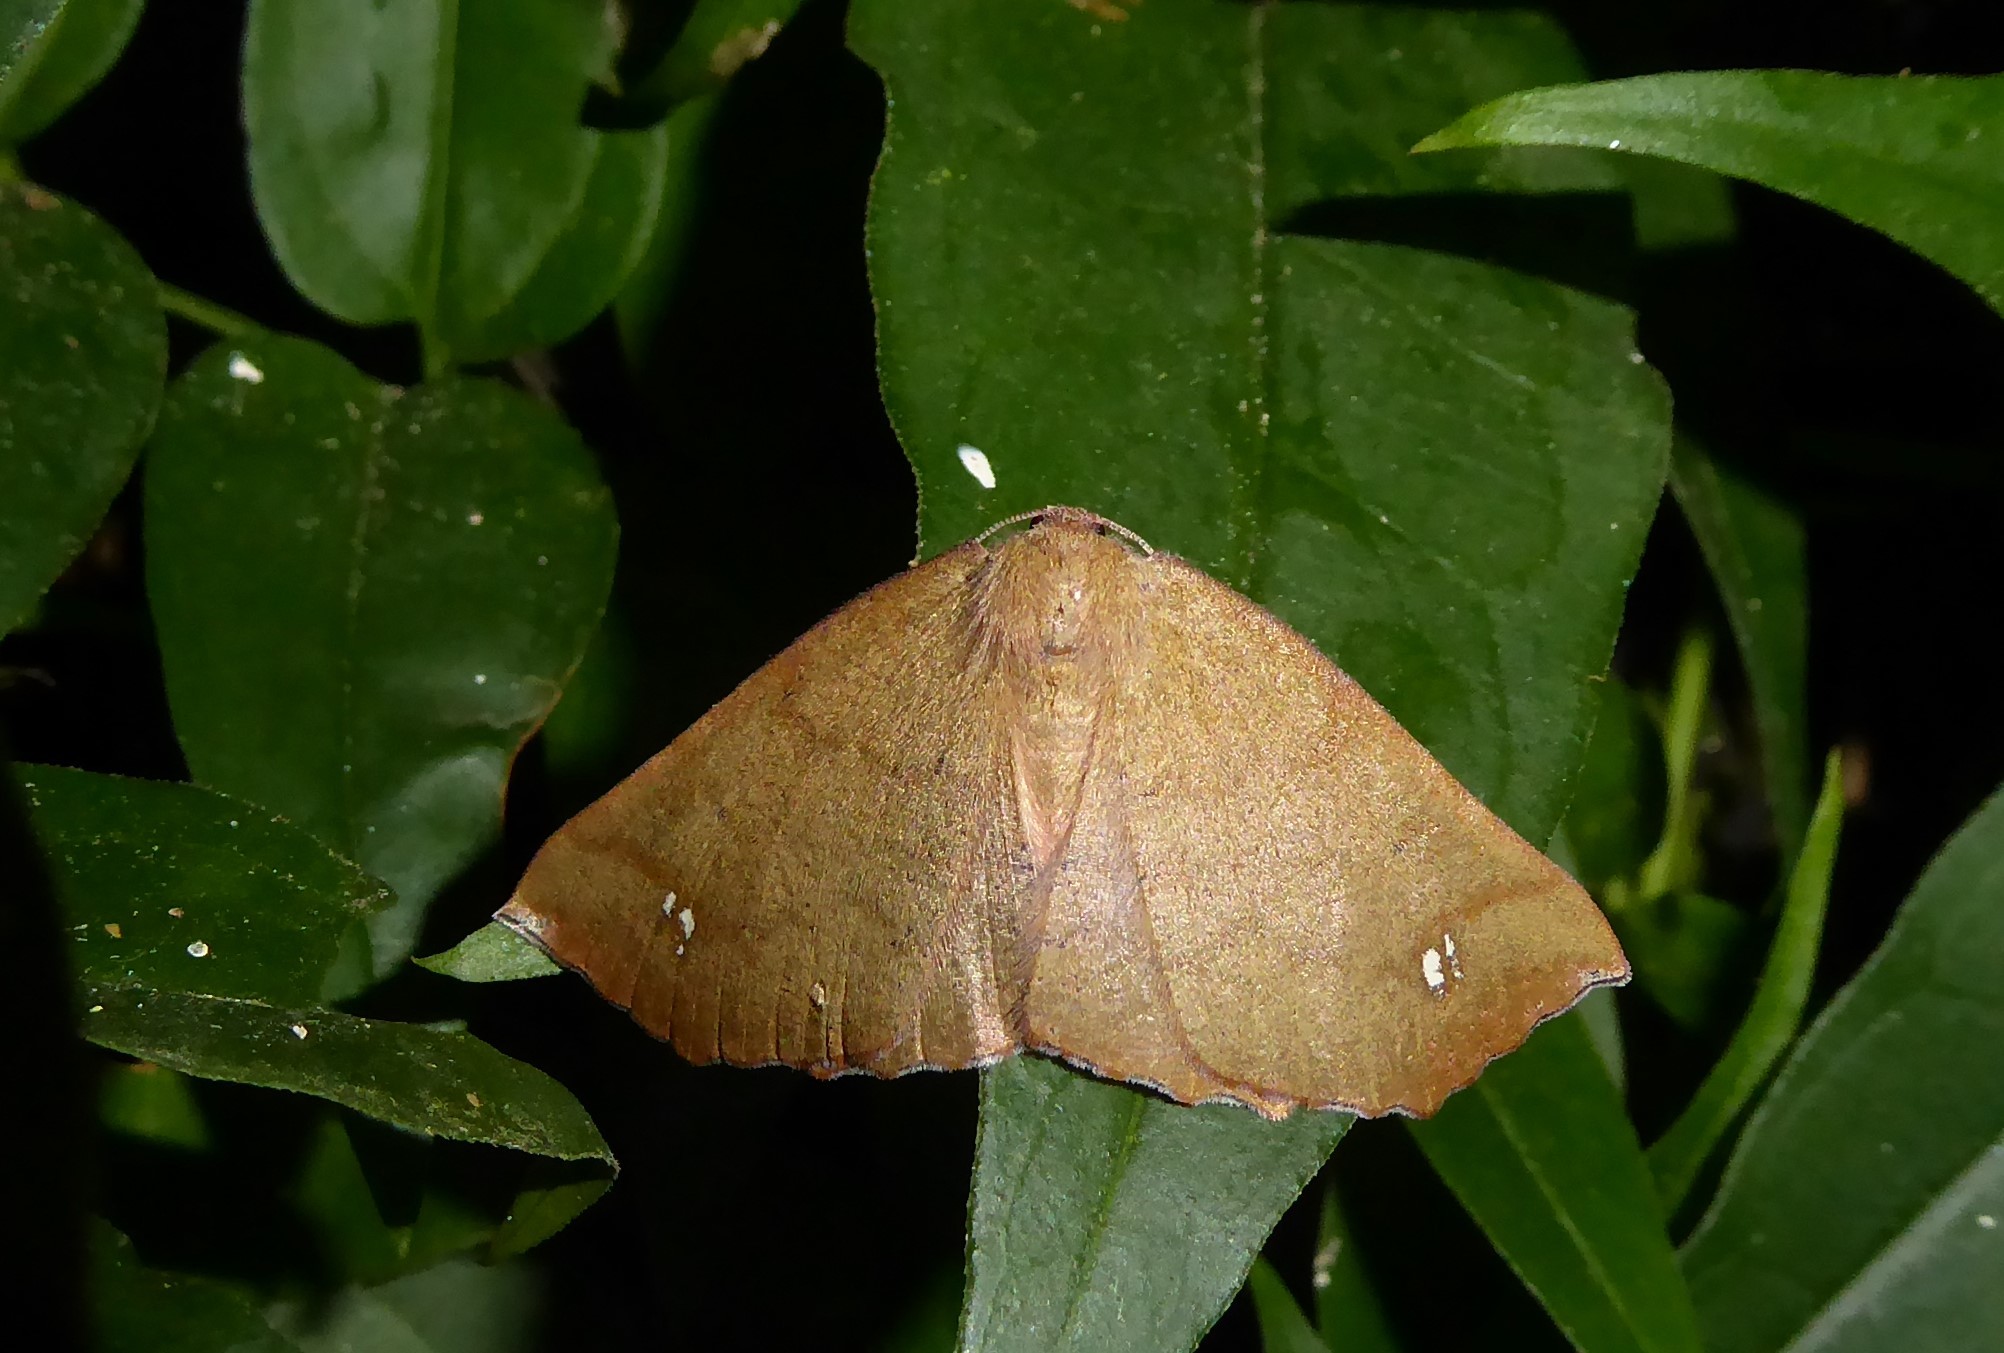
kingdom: Animalia
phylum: Arthropoda
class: Insecta
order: Lepidoptera
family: Geometridae
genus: Xyridacma
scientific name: Xyridacma ustaria
